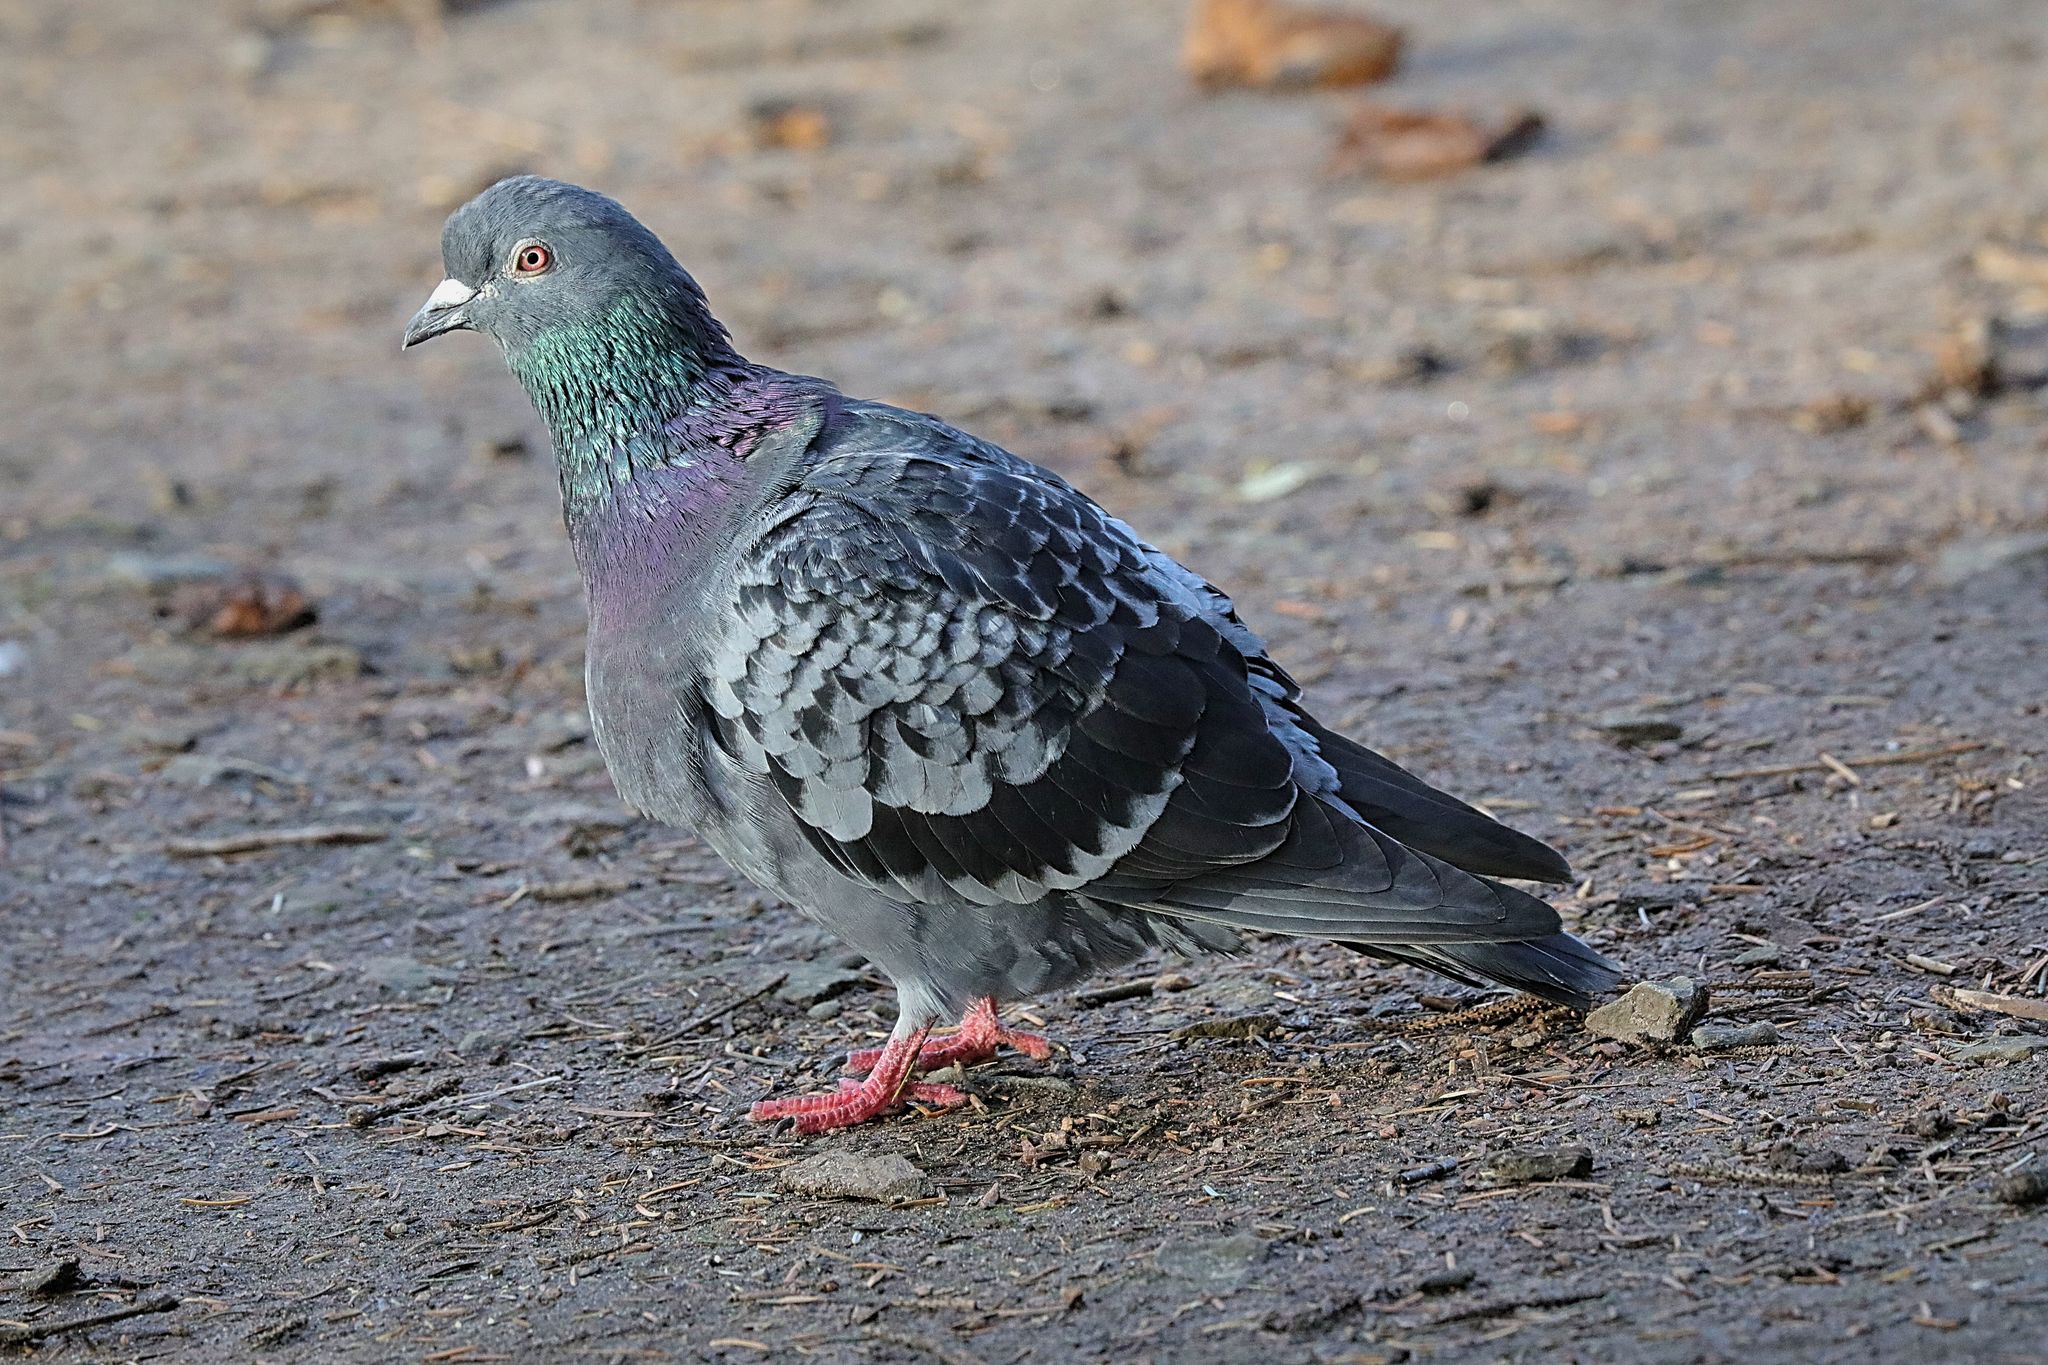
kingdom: Animalia
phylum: Chordata
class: Aves
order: Columbiformes
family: Columbidae
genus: Columba
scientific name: Columba livia
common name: Rock pigeon
